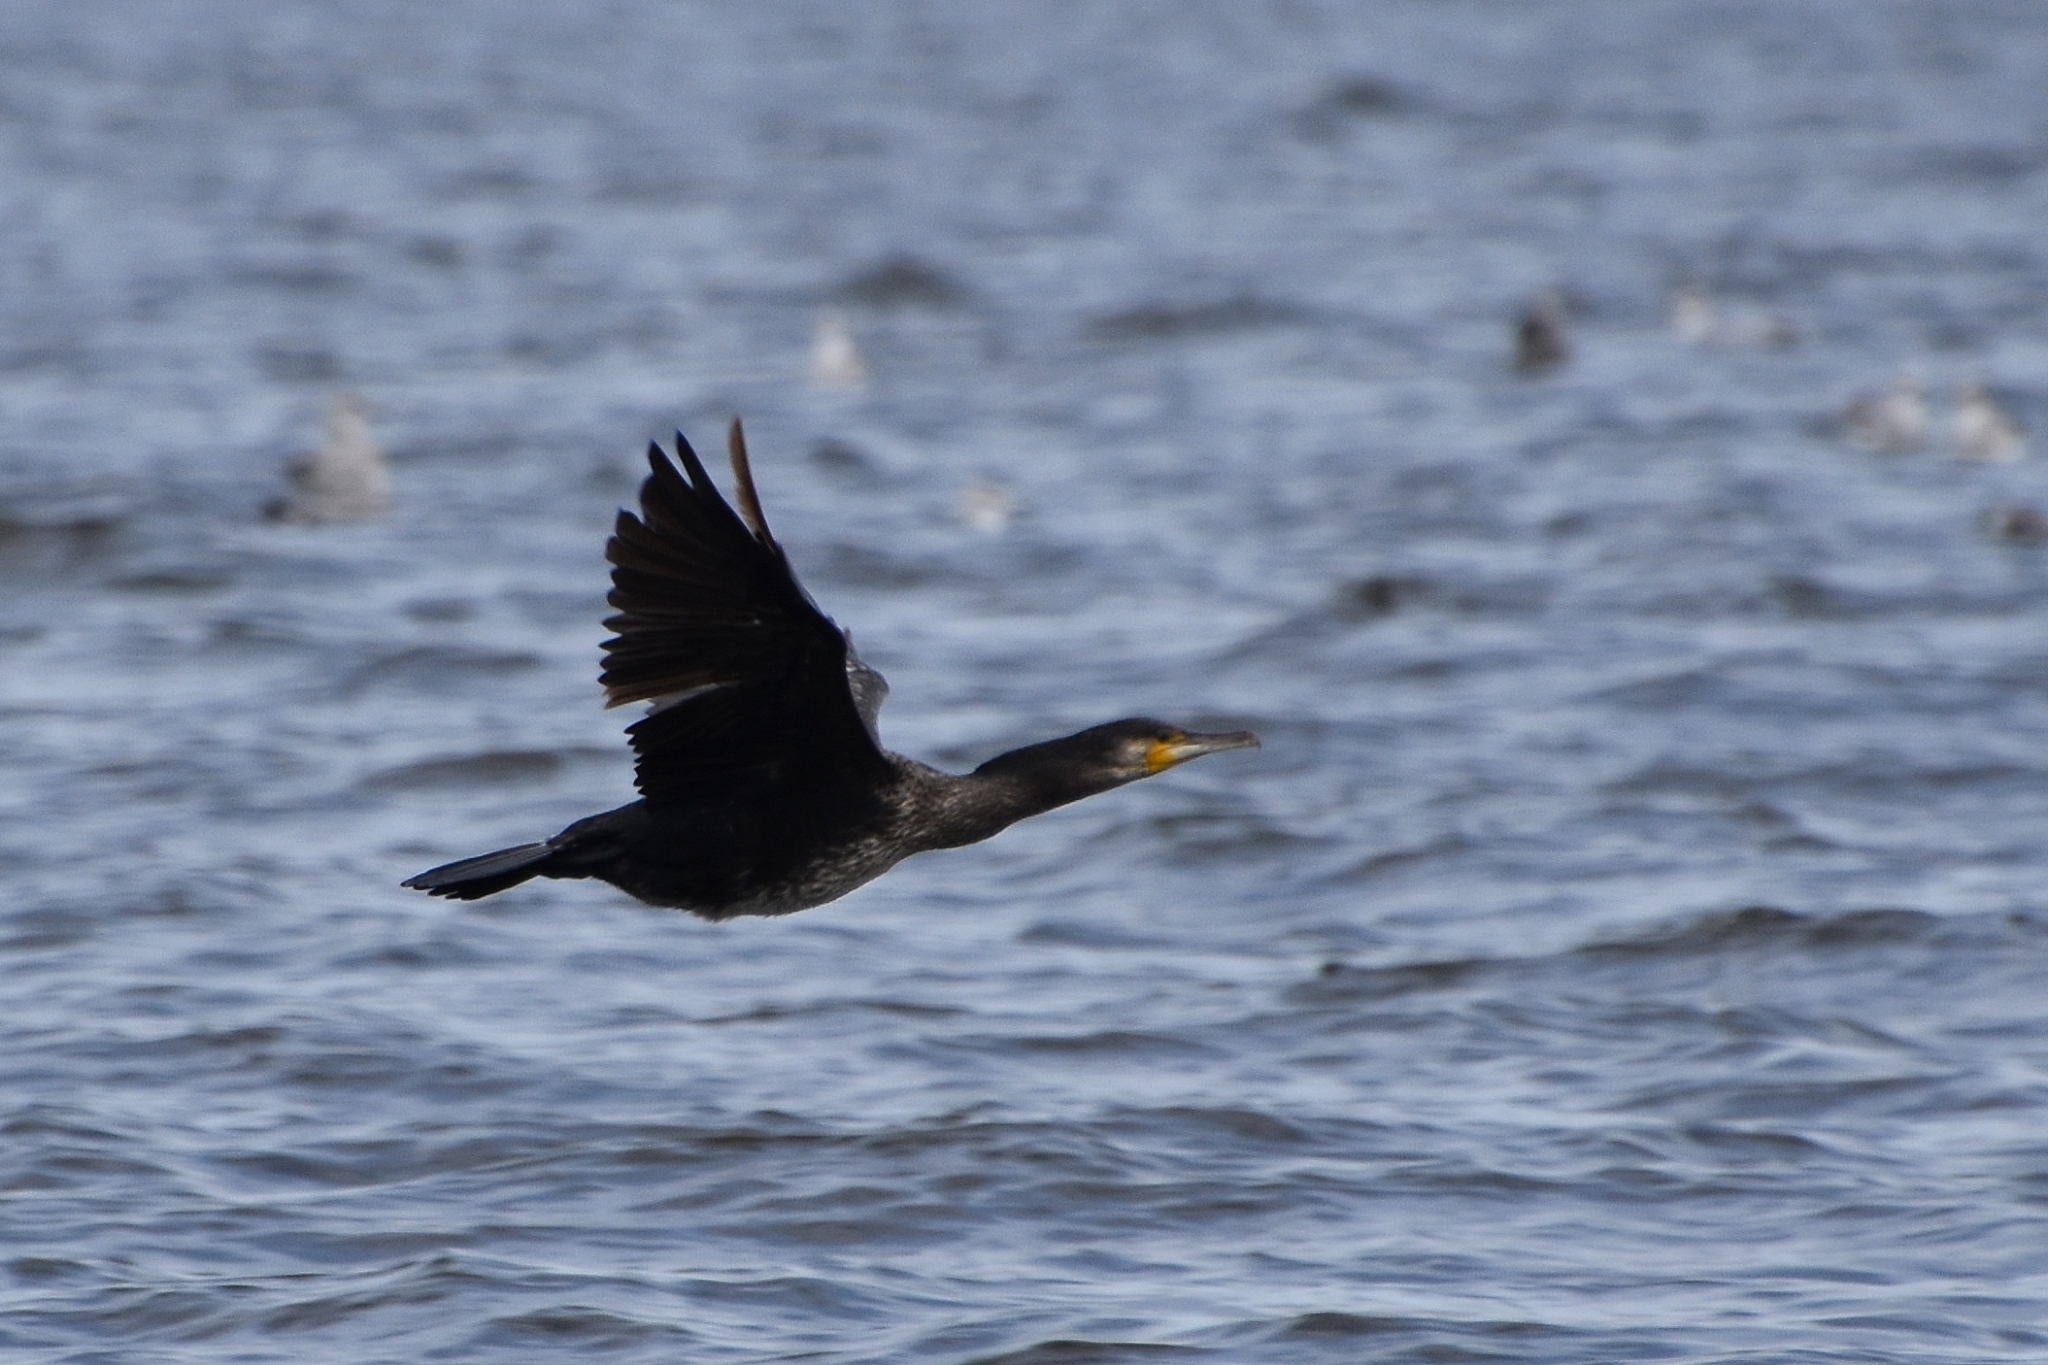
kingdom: Animalia
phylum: Chordata
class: Aves
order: Suliformes
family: Phalacrocoracidae
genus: Phalacrocorax
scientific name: Phalacrocorax carbo
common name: Great cormorant
